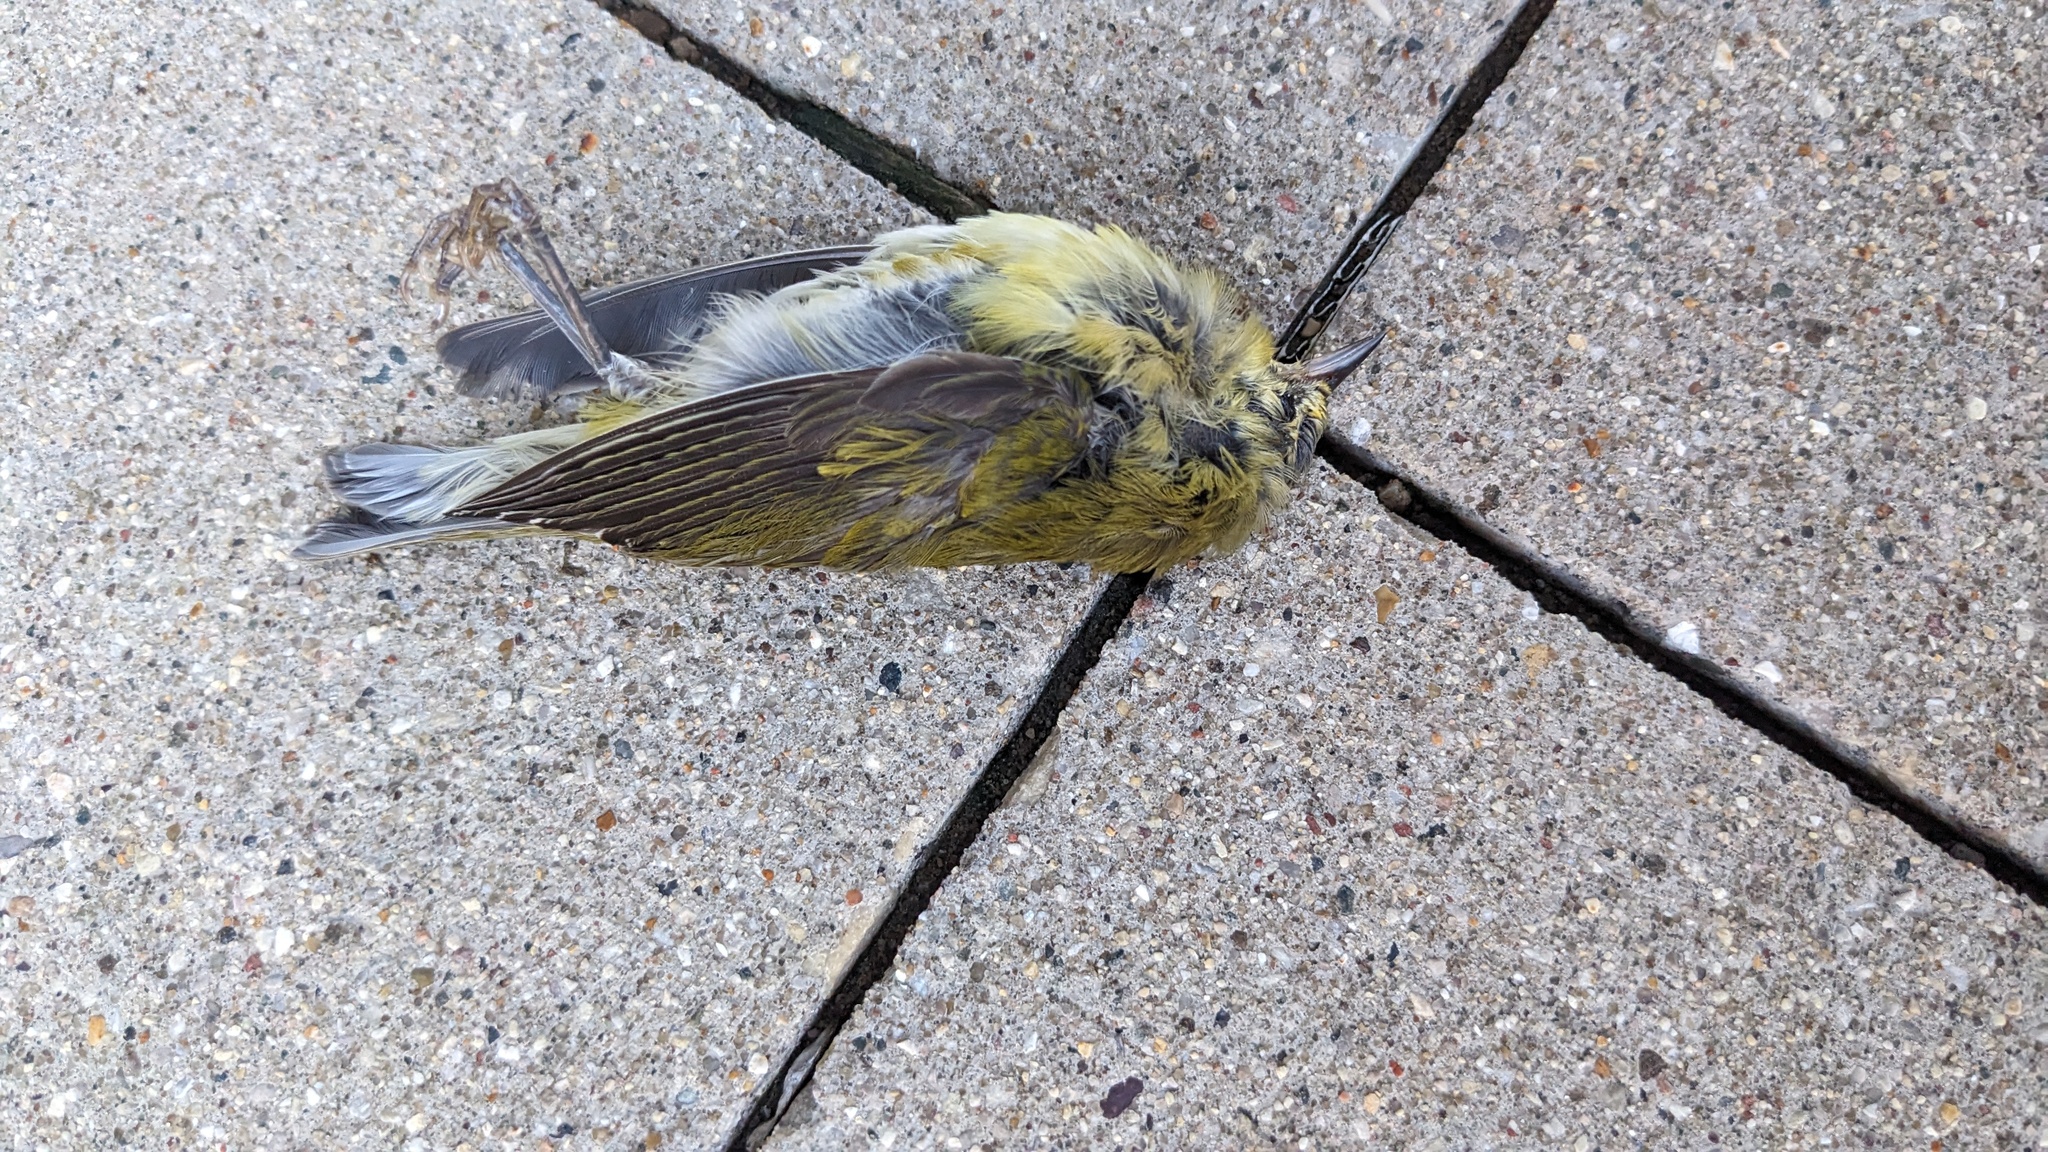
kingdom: Animalia
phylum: Chordata
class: Aves
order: Passeriformes
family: Parulidae
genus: Leiothlypis
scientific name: Leiothlypis peregrina
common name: Tennessee warbler
